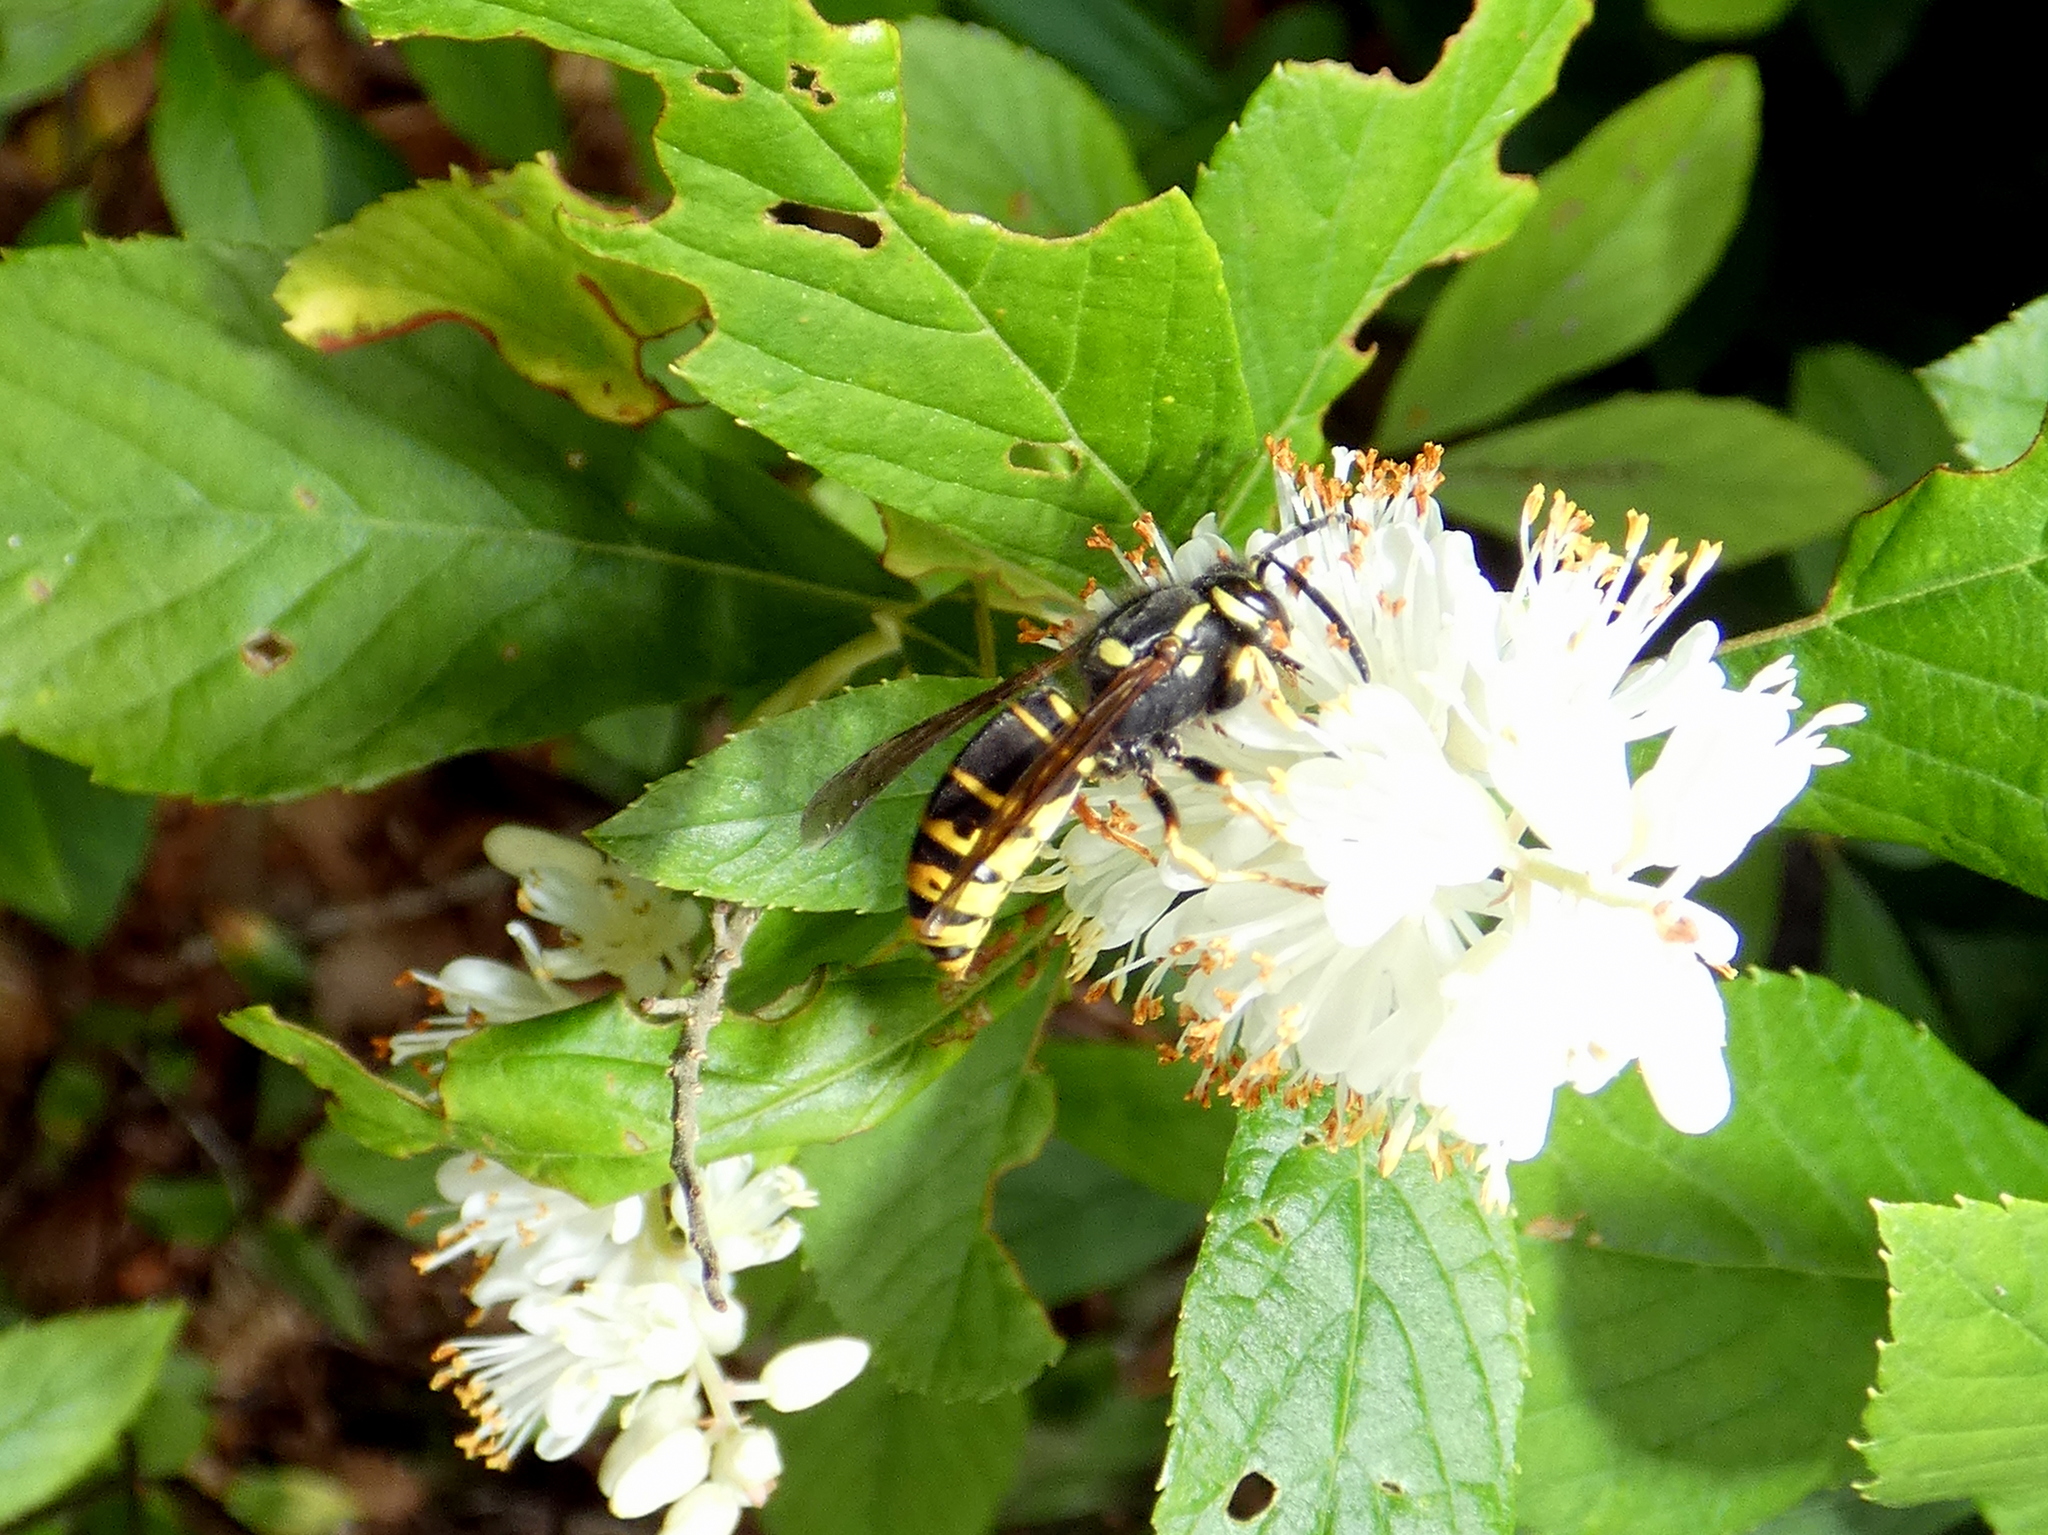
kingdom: Animalia
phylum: Arthropoda
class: Insecta
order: Hymenoptera
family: Vespidae
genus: Vespula
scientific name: Vespula vidua
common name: Widow yellowjacket
